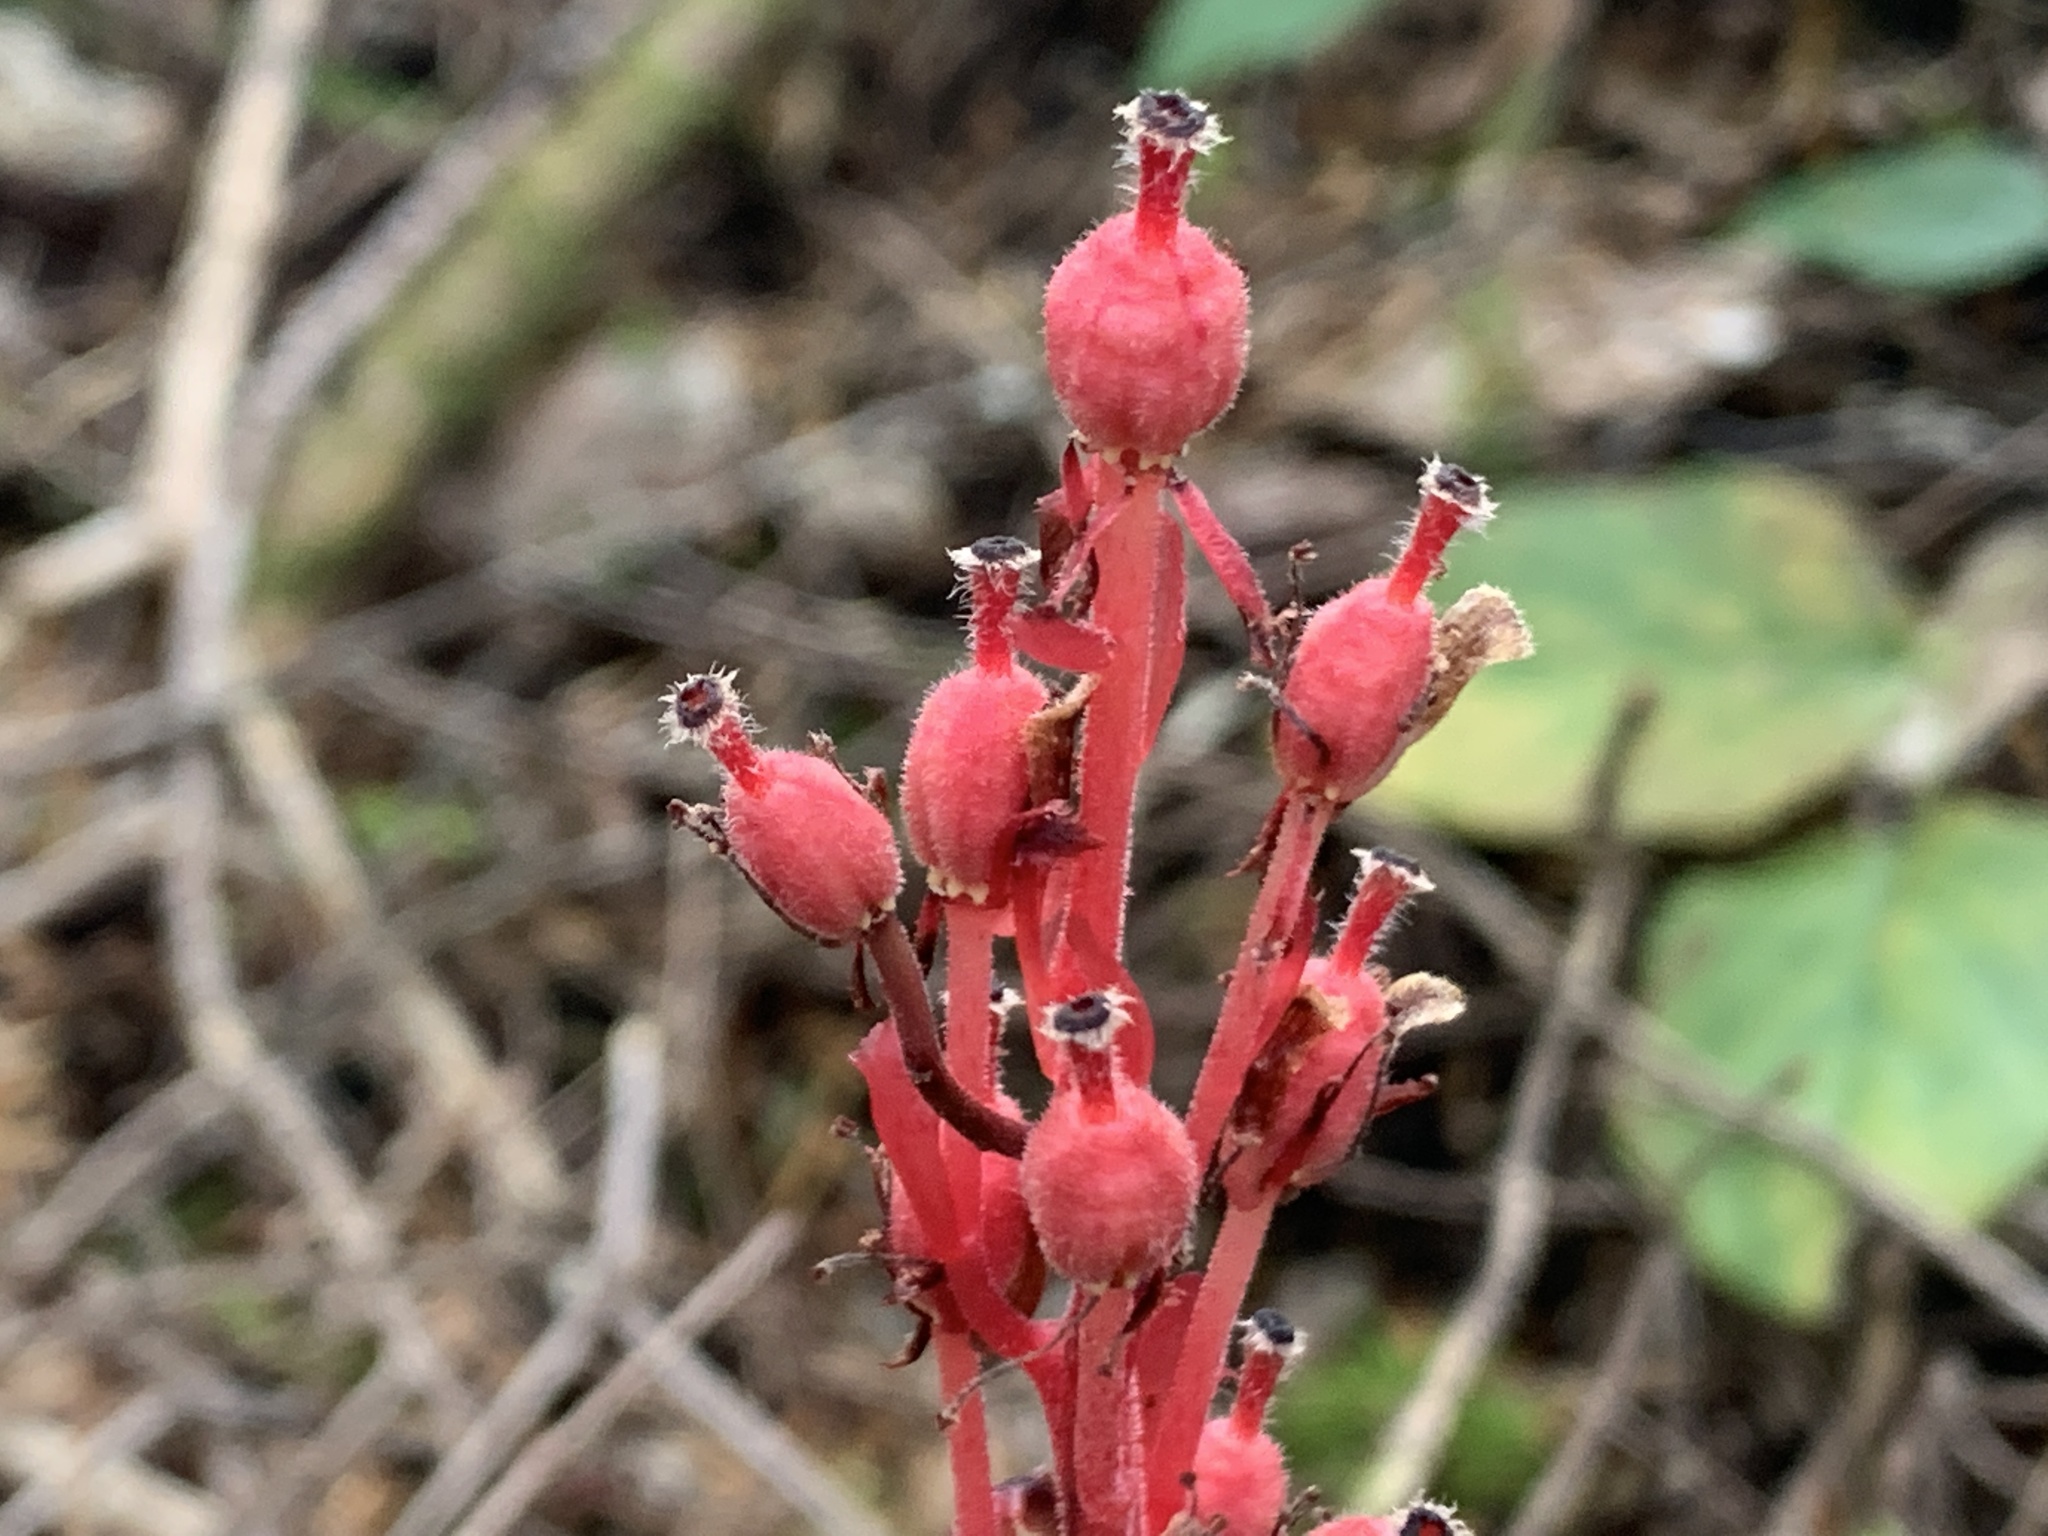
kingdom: Plantae
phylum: Tracheophyta
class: Magnoliopsida
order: Ericales
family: Ericaceae
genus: Hypopitys
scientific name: Hypopitys monotropa
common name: Yellow bird's-nest
